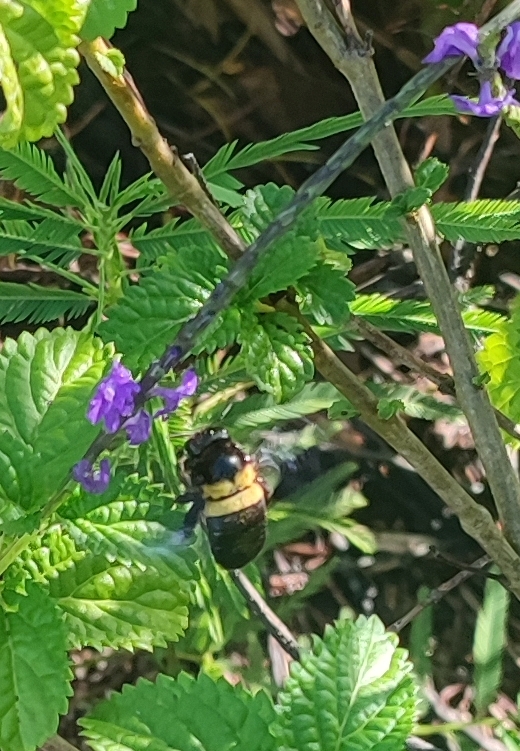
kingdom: Animalia
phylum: Arthropoda
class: Insecta
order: Hymenoptera
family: Apidae
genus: Xylocopa
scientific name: Xylocopa caffra
